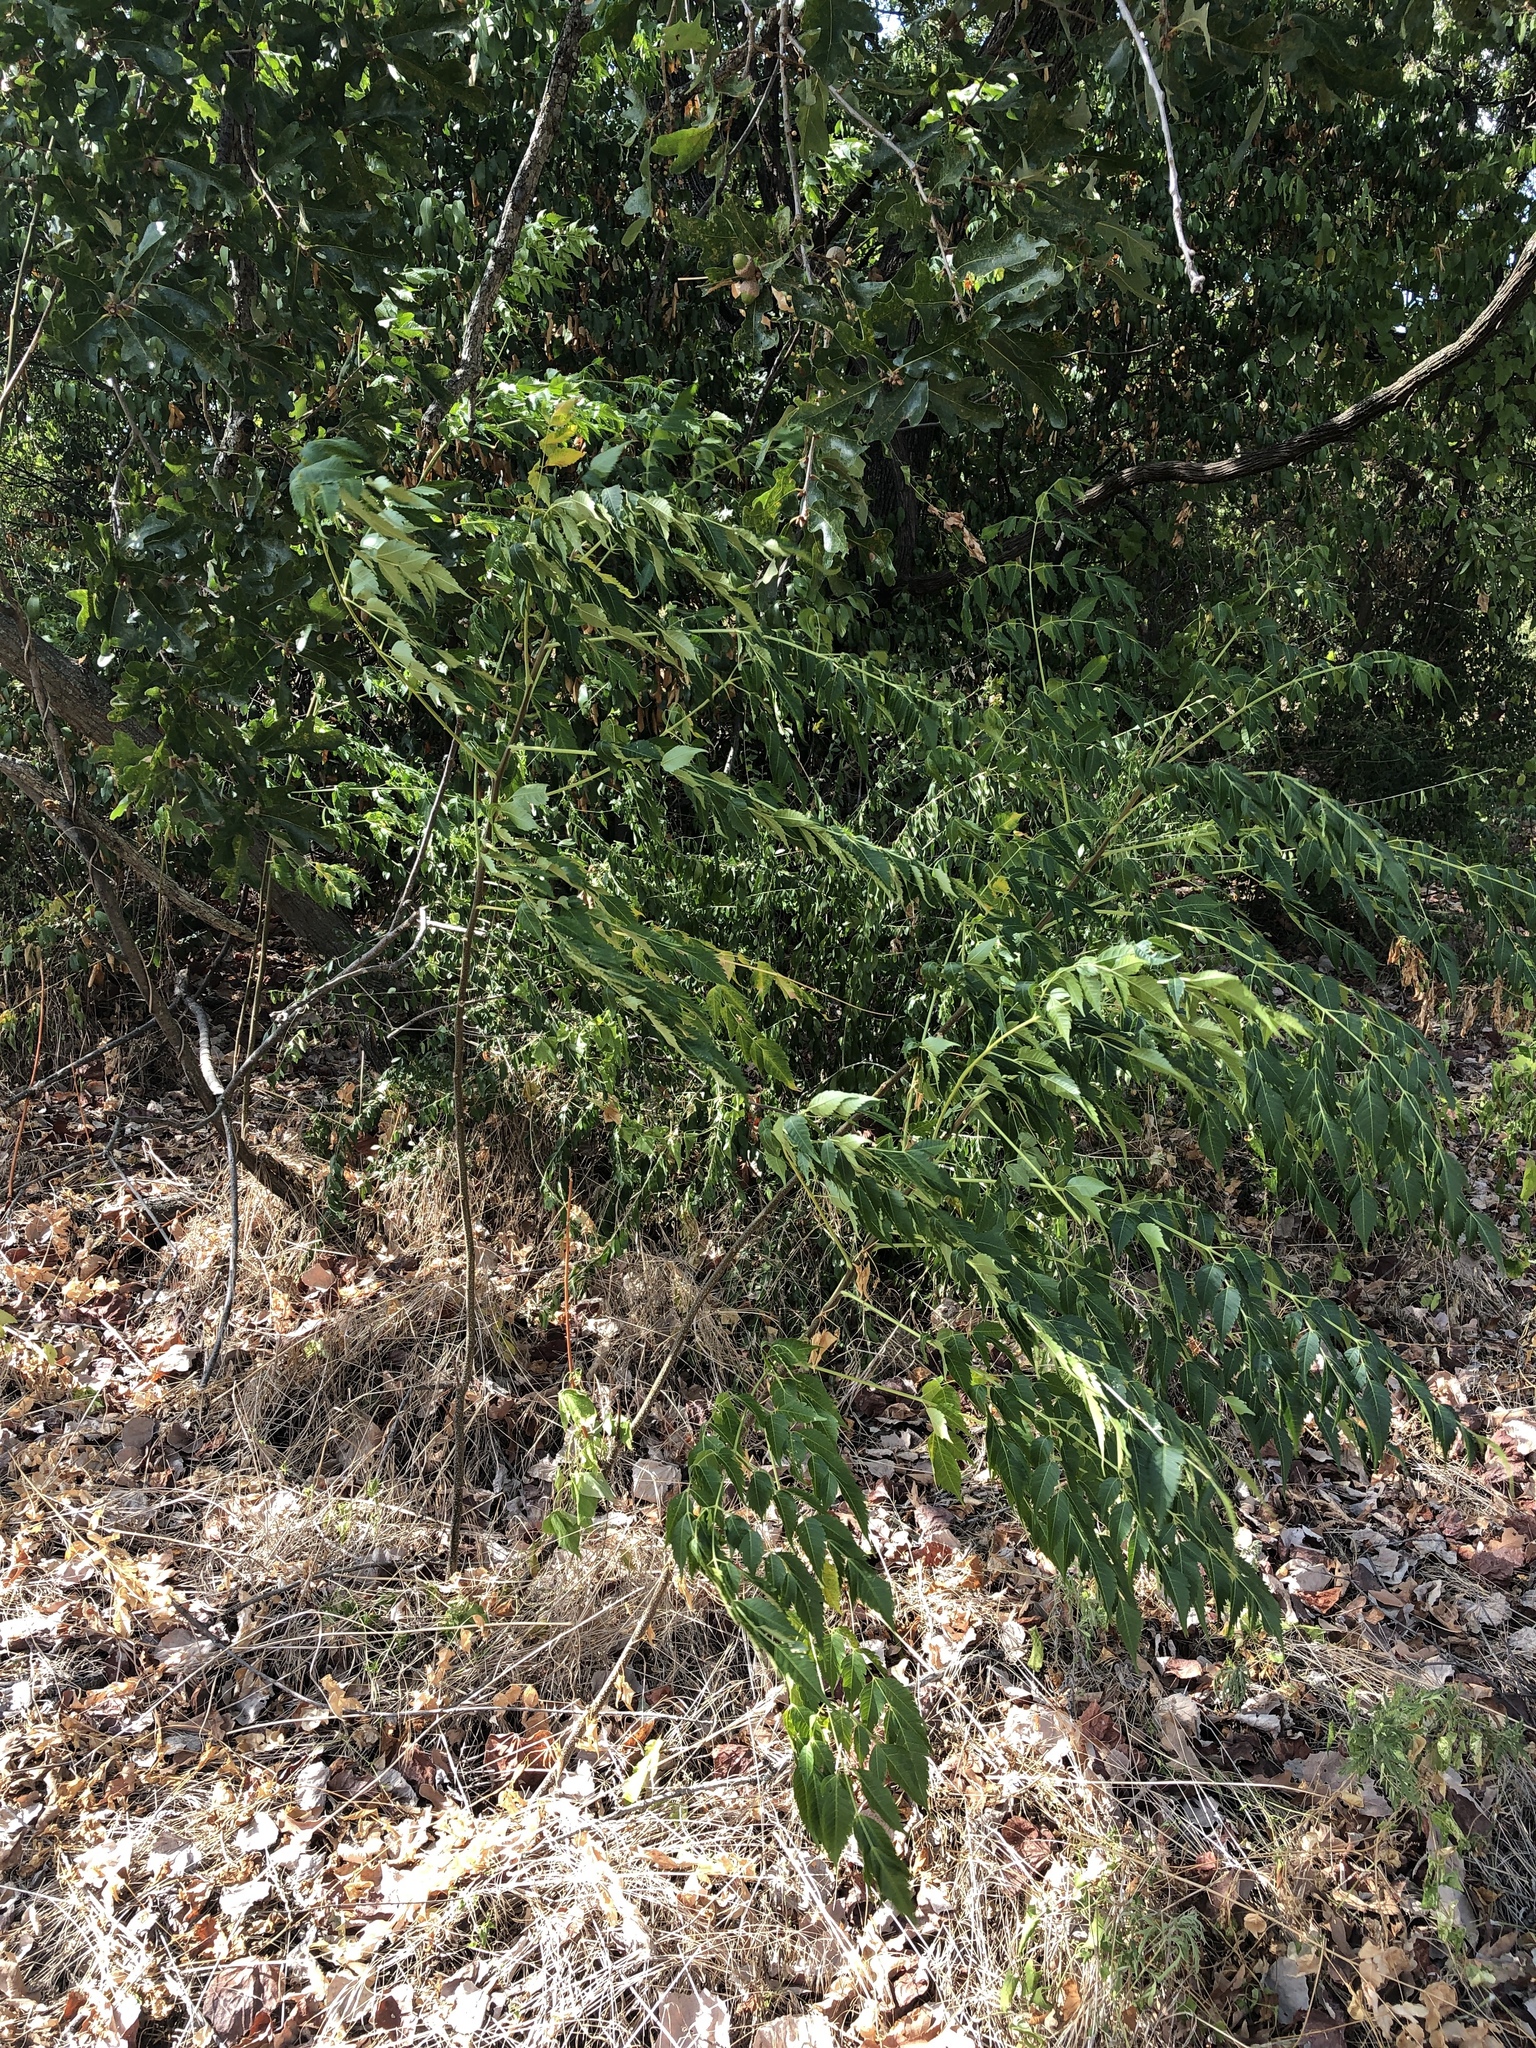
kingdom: Plantae
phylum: Tracheophyta
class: Magnoliopsida
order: Sapindales
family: Meliaceae
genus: Melia
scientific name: Melia azedarach
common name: Chinaberrytree
